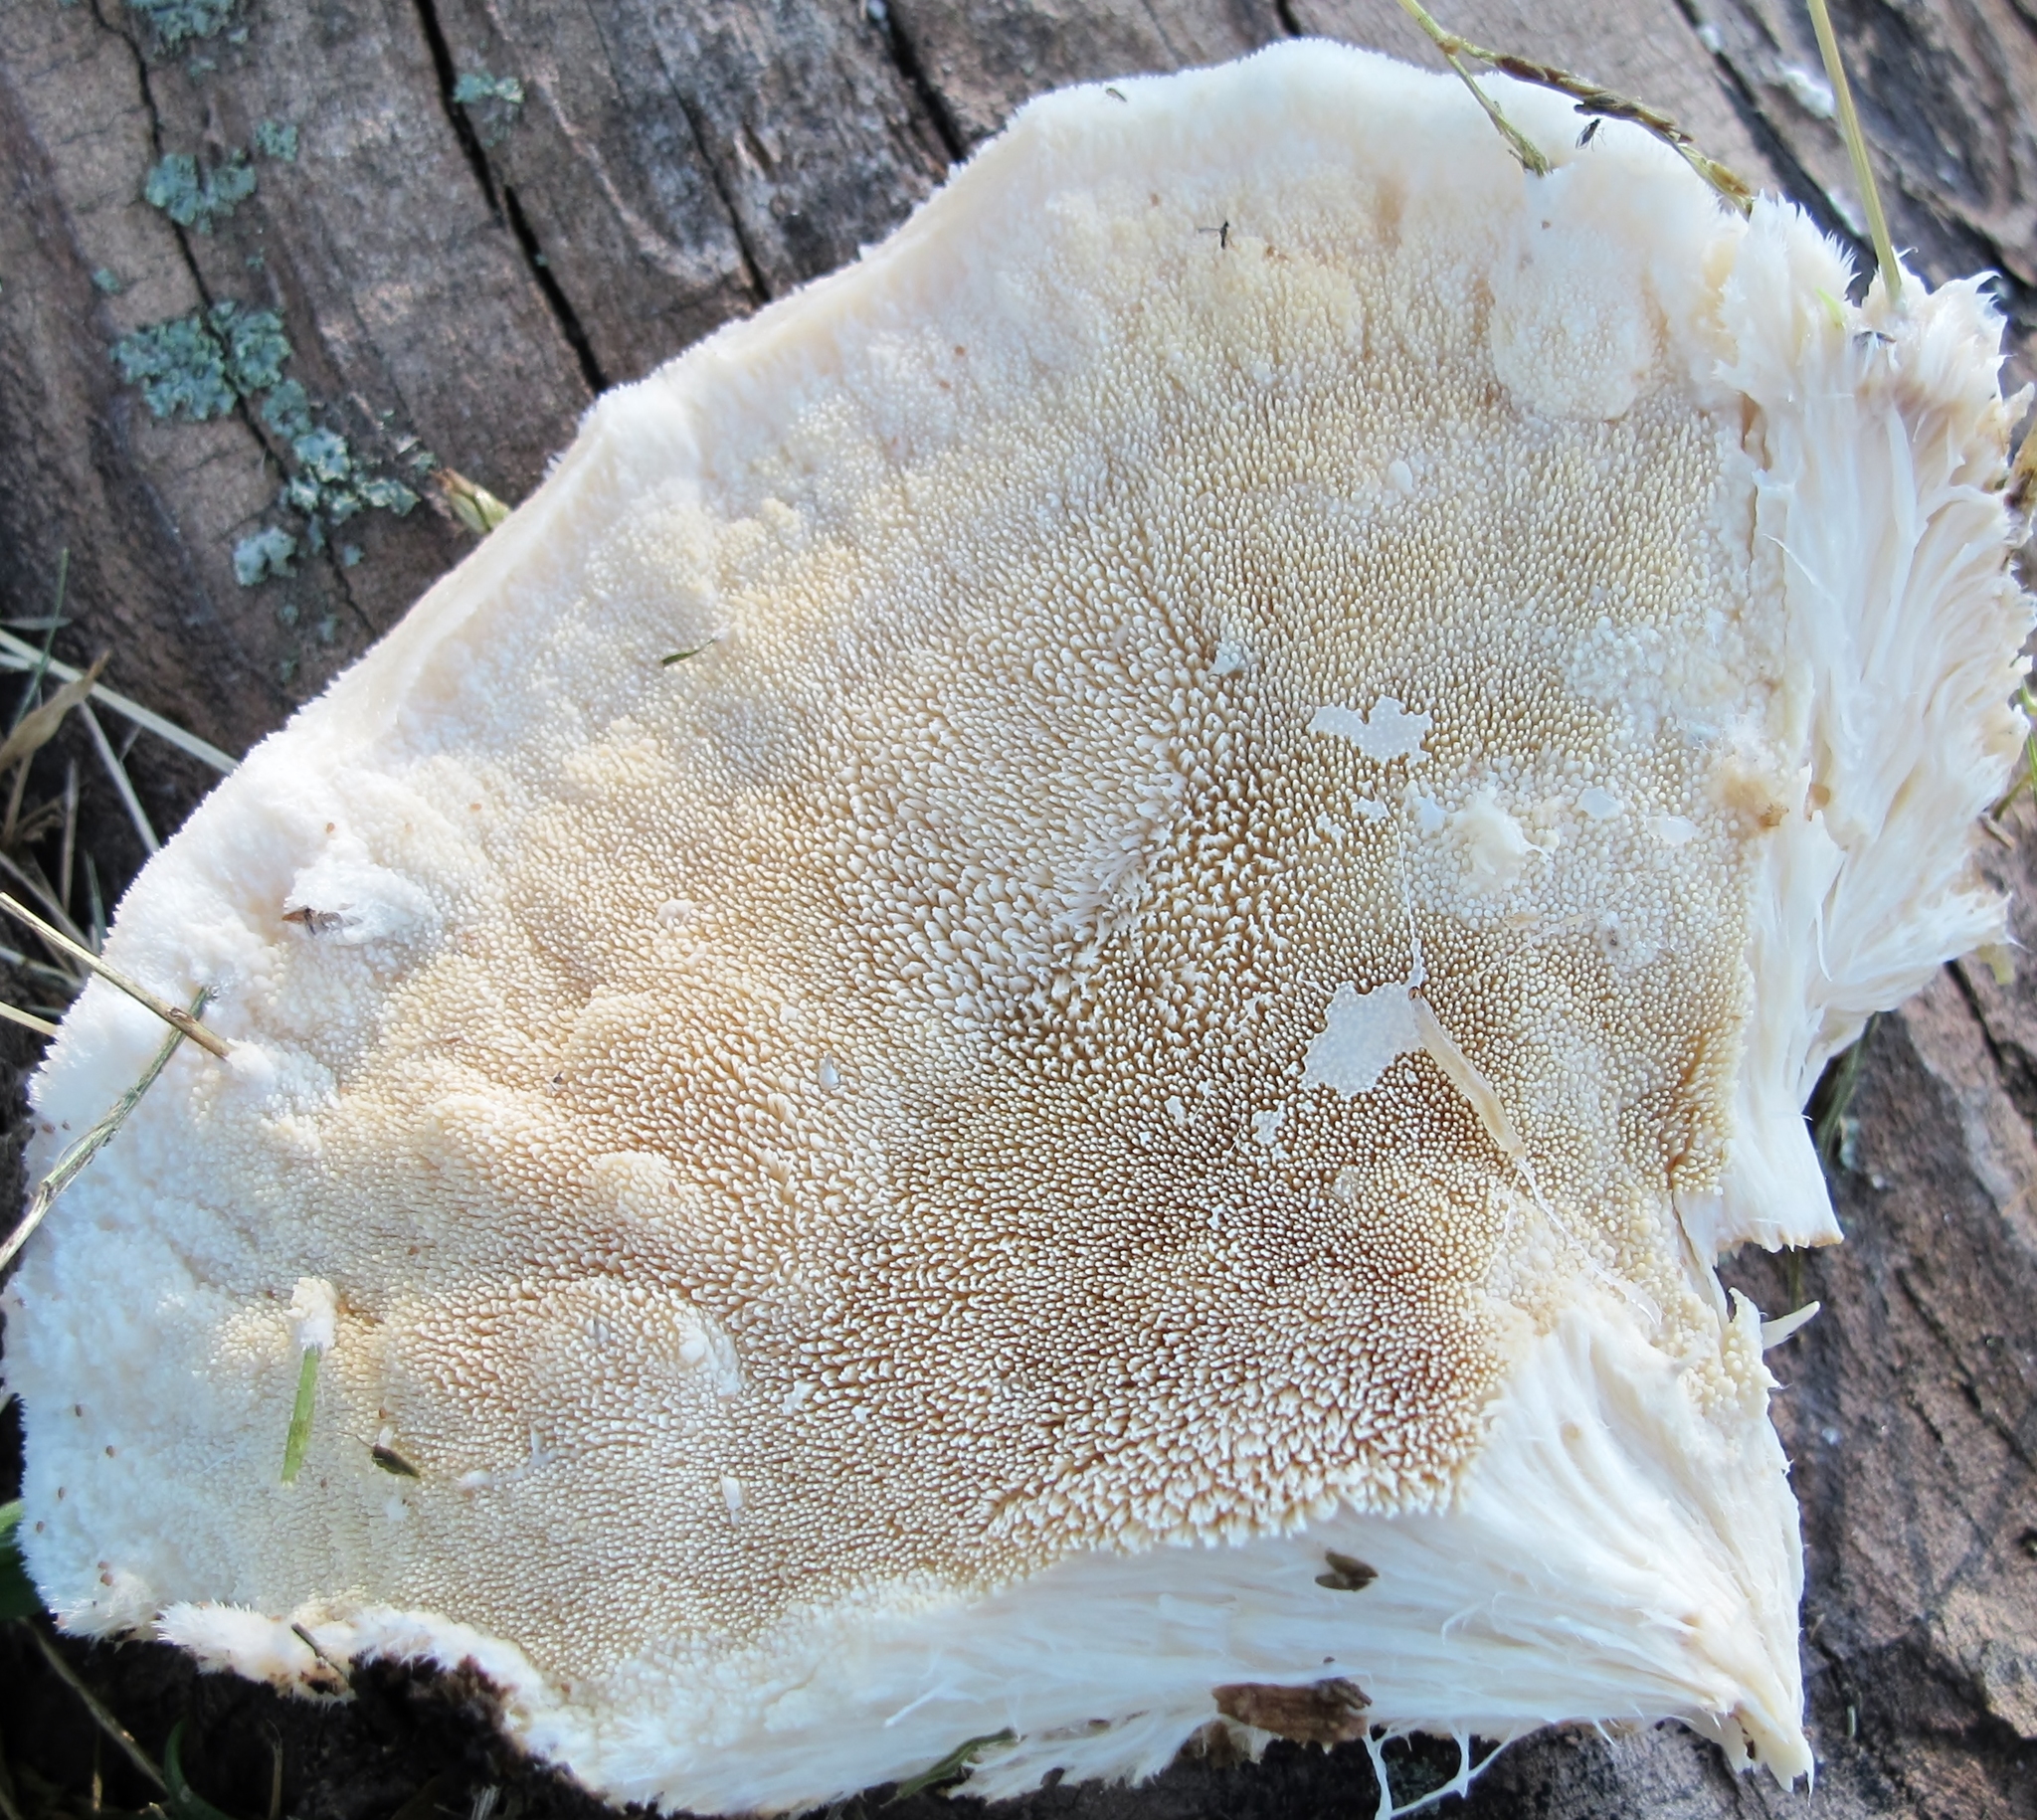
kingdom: Fungi
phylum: Basidiomycota
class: Agaricomycetes
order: Polyporales
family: Meruliaceae
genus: Donkia
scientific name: Donkia pulcherrima
